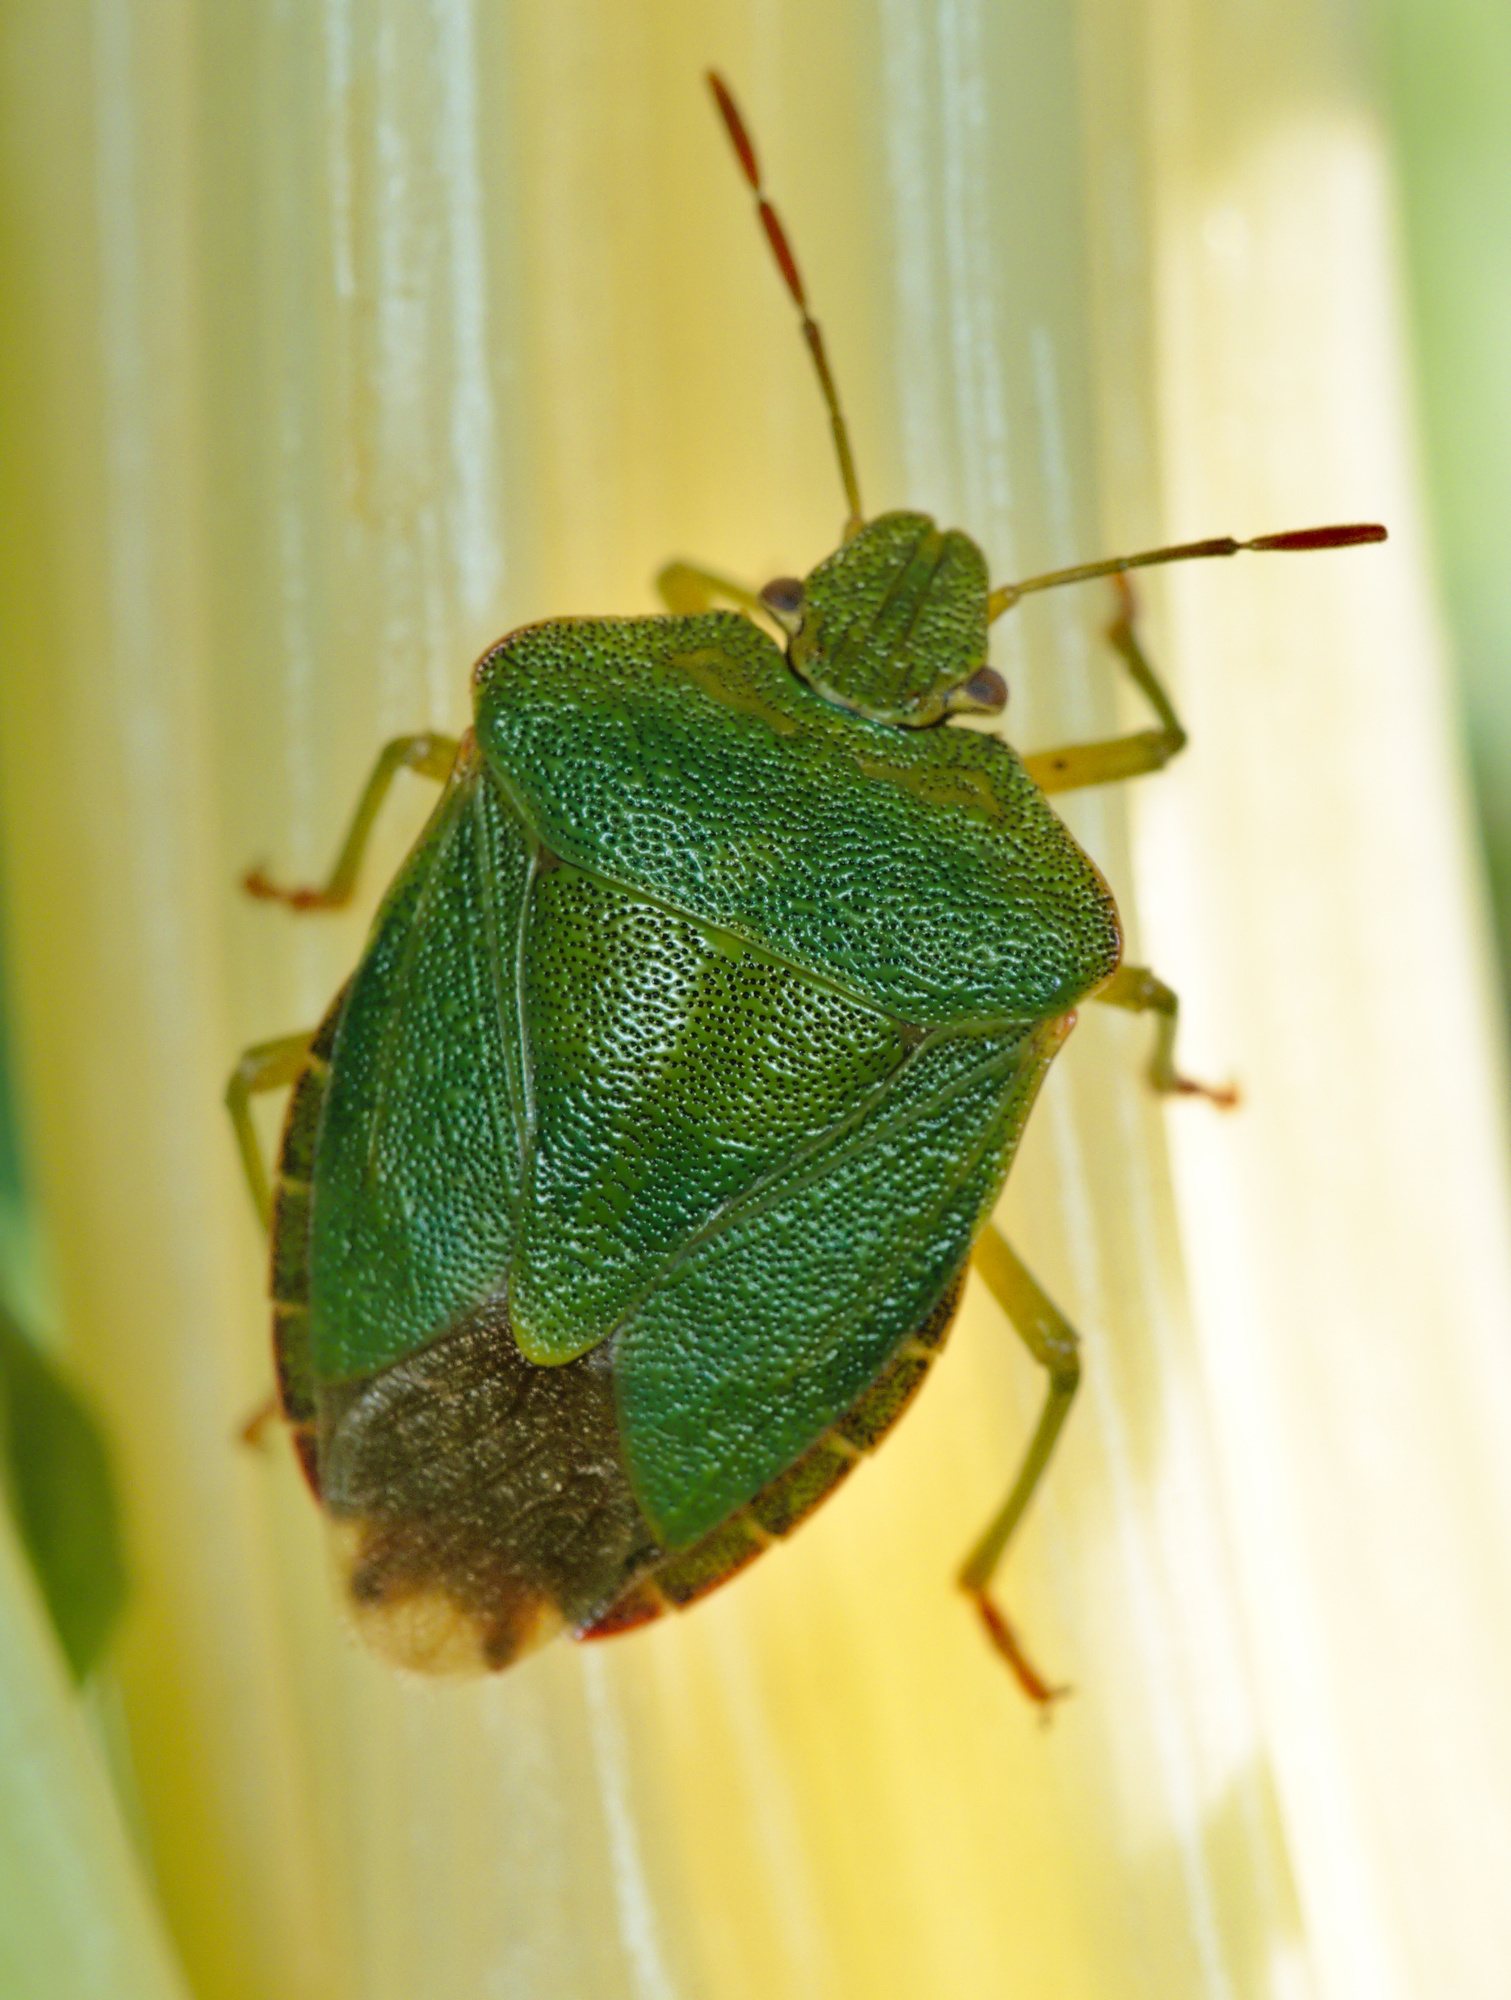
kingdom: Animalia
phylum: Arthropoda
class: Insecta
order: Hemiptera
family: Pentatomidae
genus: Palomena
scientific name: Palomena prasina
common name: Green shieldbug
